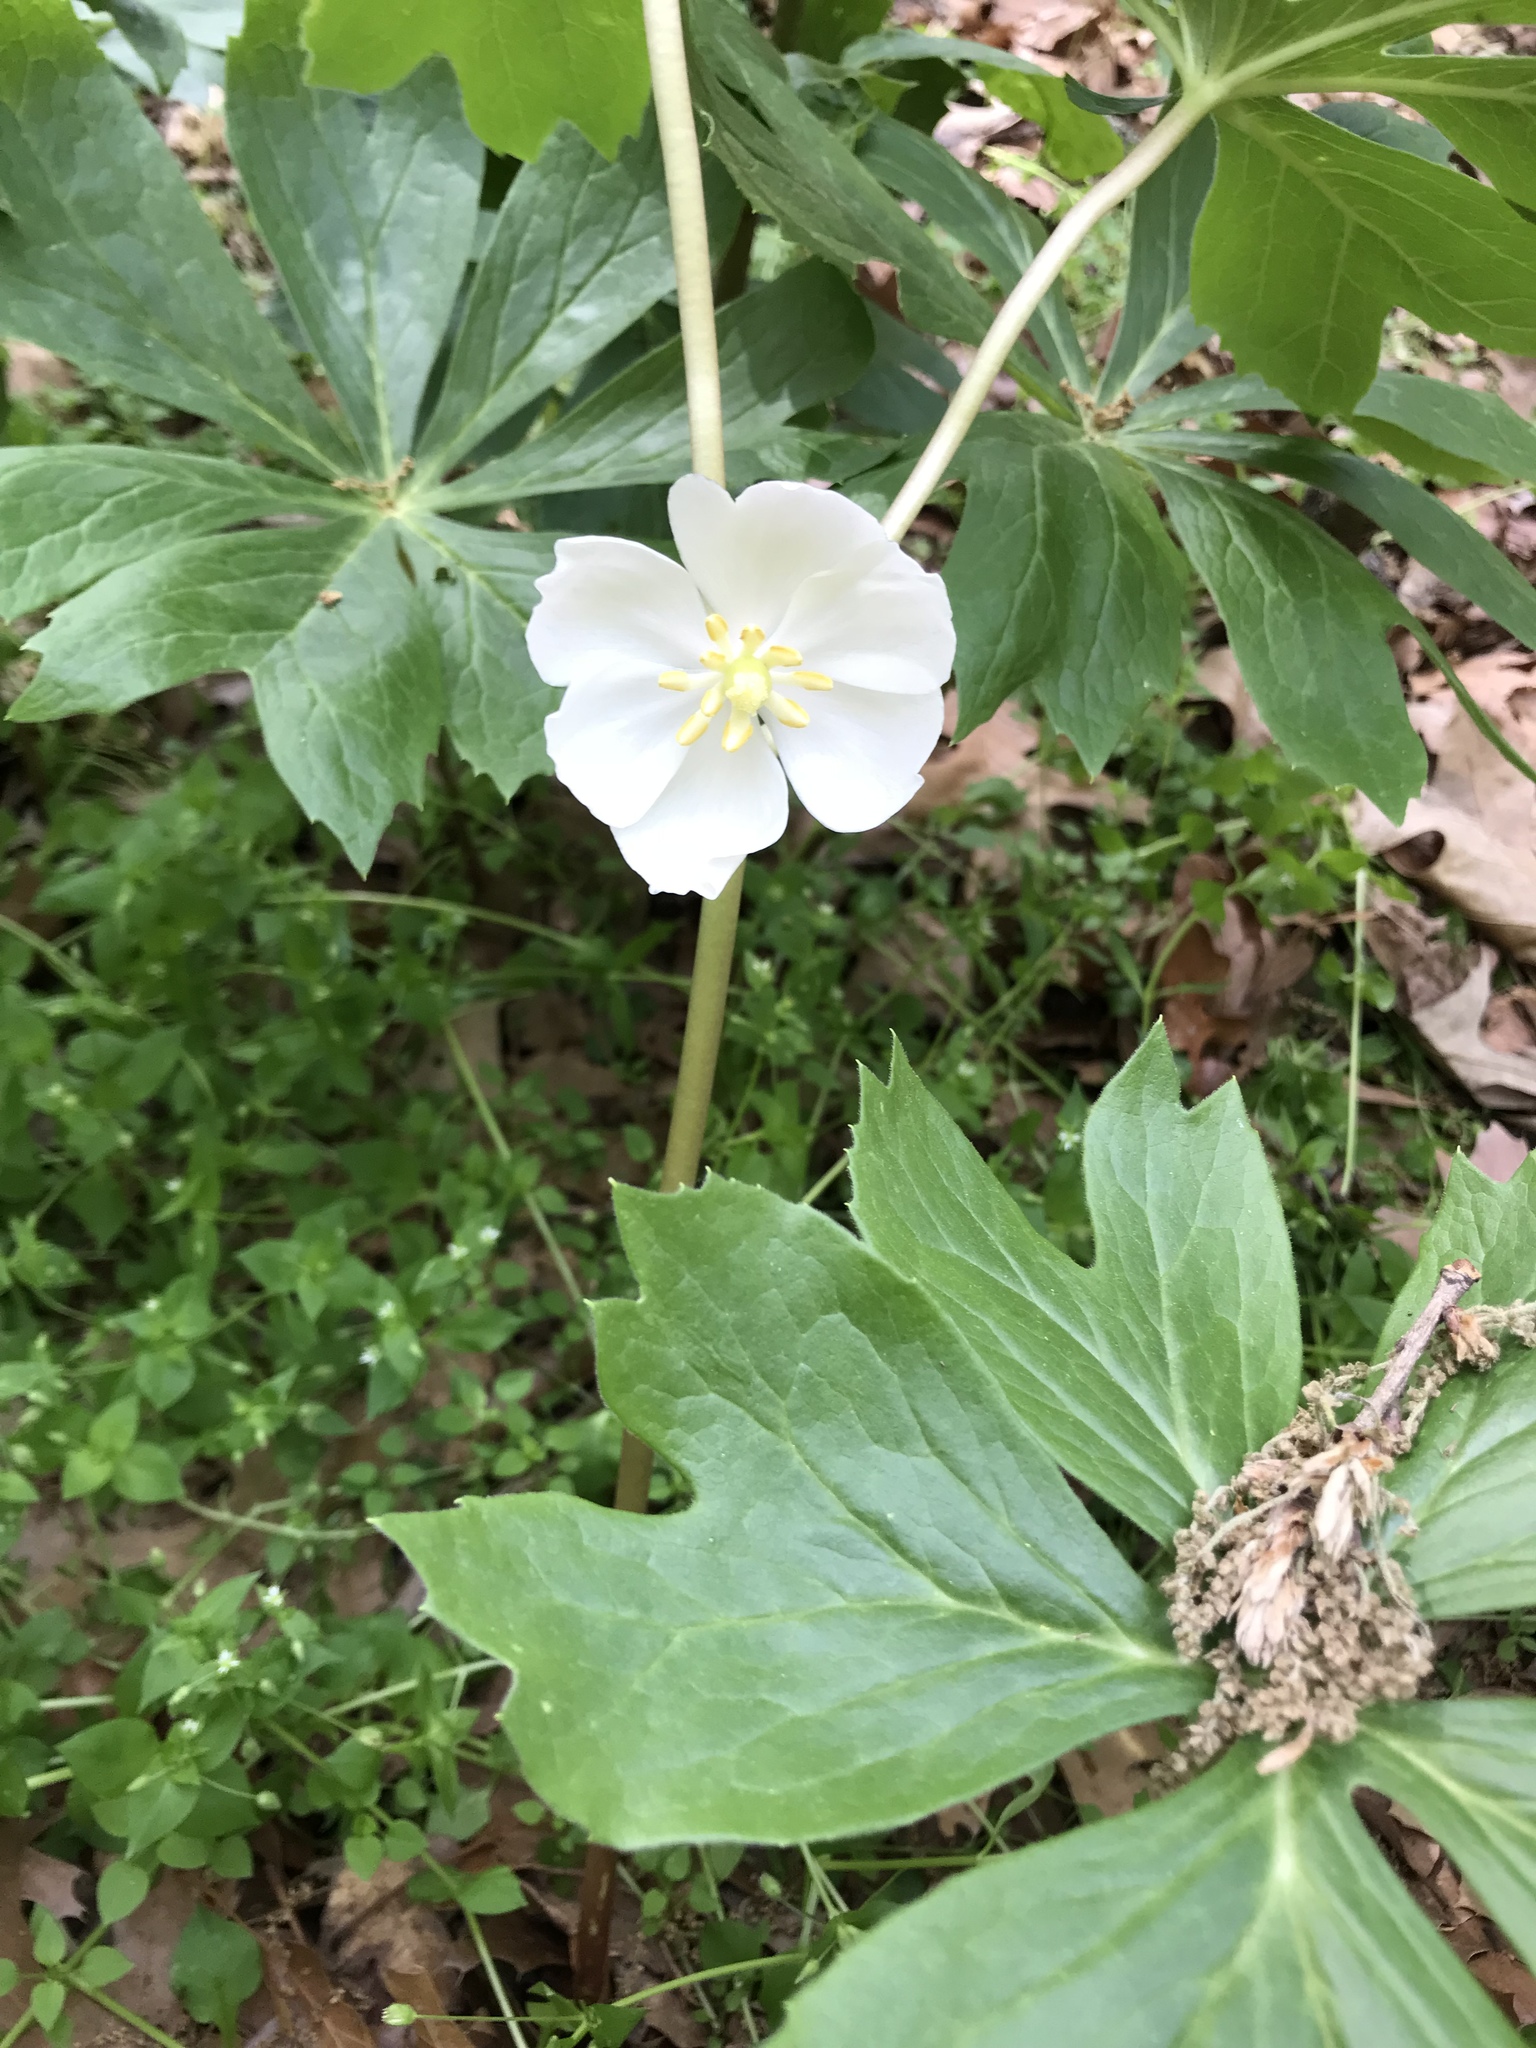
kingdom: Plantae
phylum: Tracheophyta
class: Magnoliopsida
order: Ranunculales
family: Berberidaceae
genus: Podophyllum
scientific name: Podophyllum peltatum
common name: Wild mandrake
